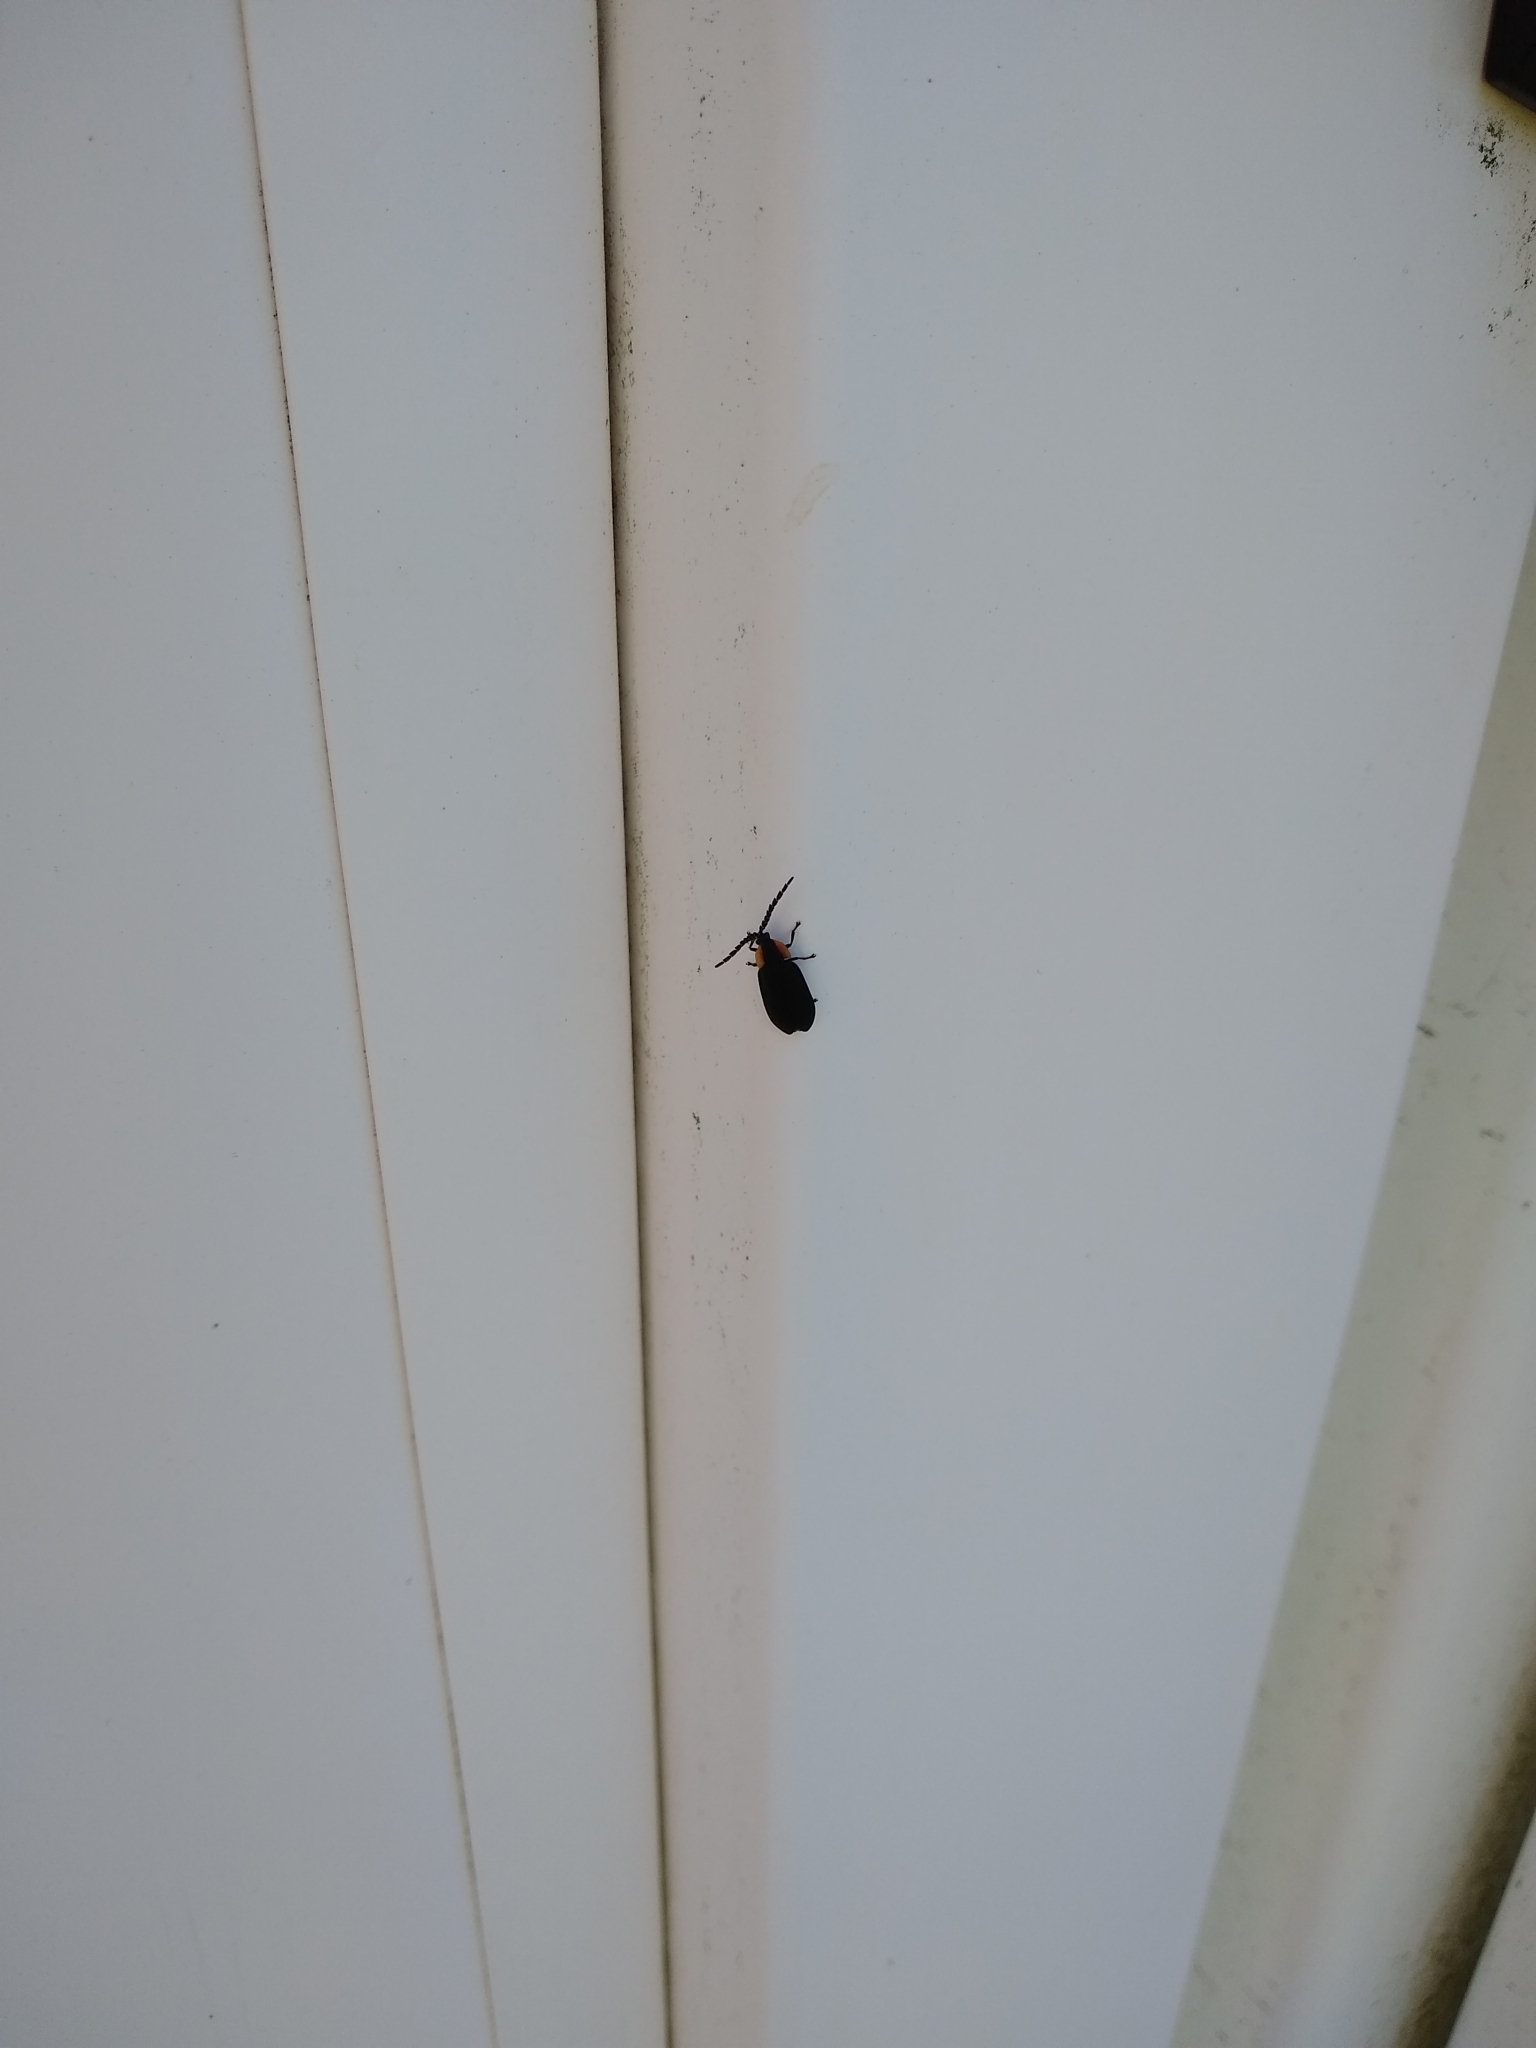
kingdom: Animalia
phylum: Arthropoda
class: Insecta
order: Coleoptera
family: Lampyridae
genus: Lucidota
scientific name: Lucidota atra
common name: Black firefly
